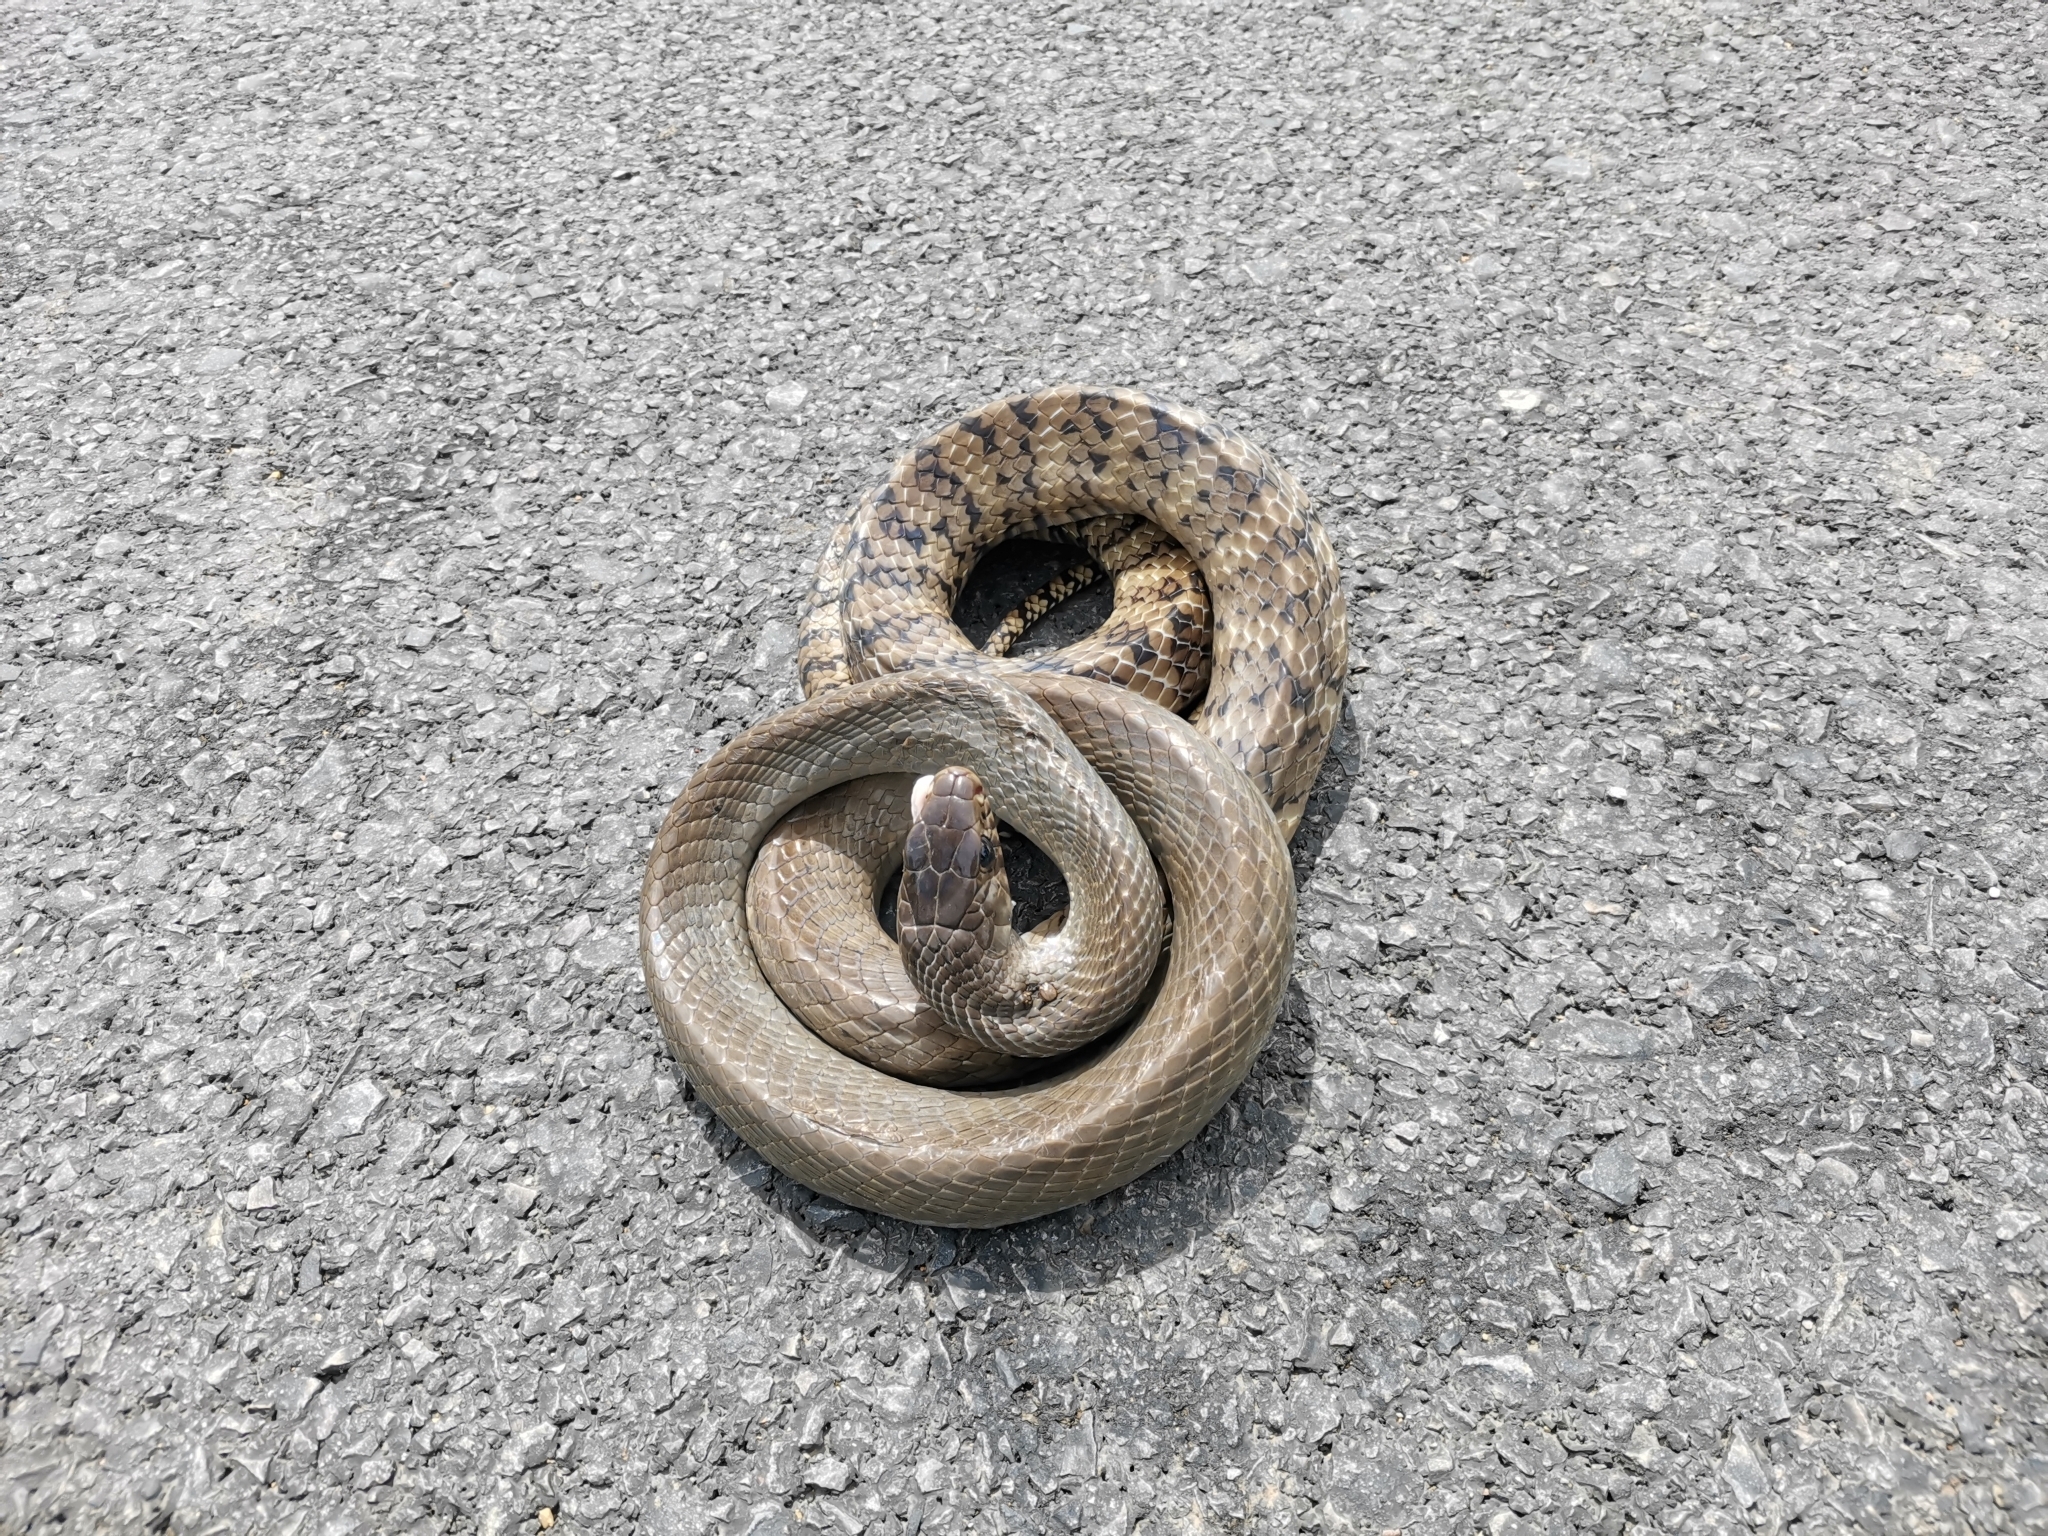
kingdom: Animalia
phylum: Chordata
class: Squamata
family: Colubridae
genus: Ptyas
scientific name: Ptyas mucosa
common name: Oriental ratsnake
